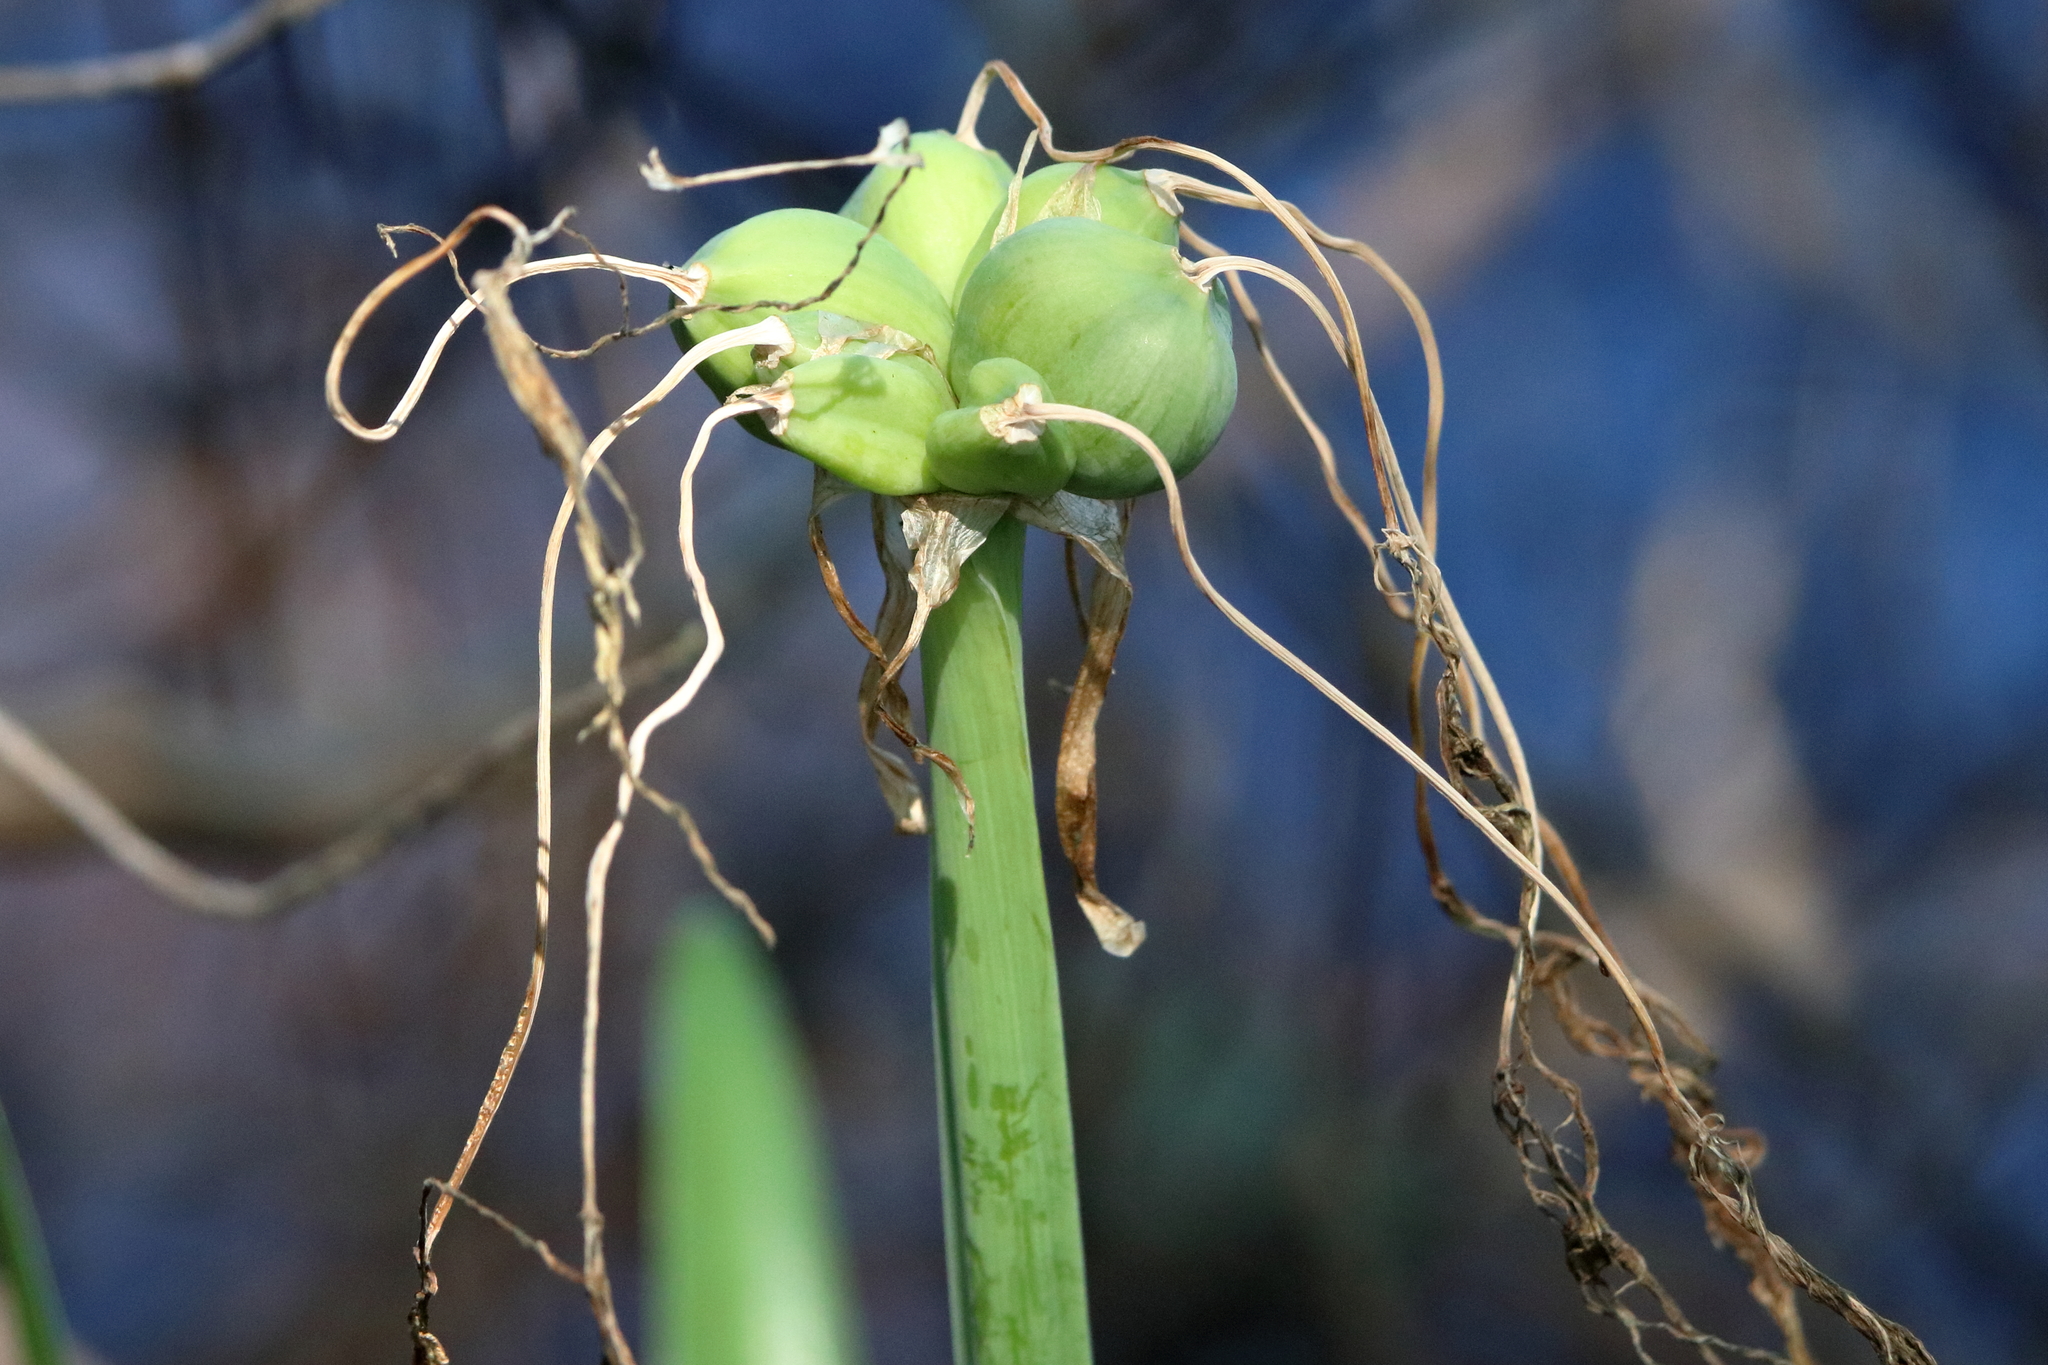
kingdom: Plantae
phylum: Tracheophyta
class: Liliopsida
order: Asparagales
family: Amaryllidaceae
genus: Hymenocallis
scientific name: Hymenocallis choctawensis
